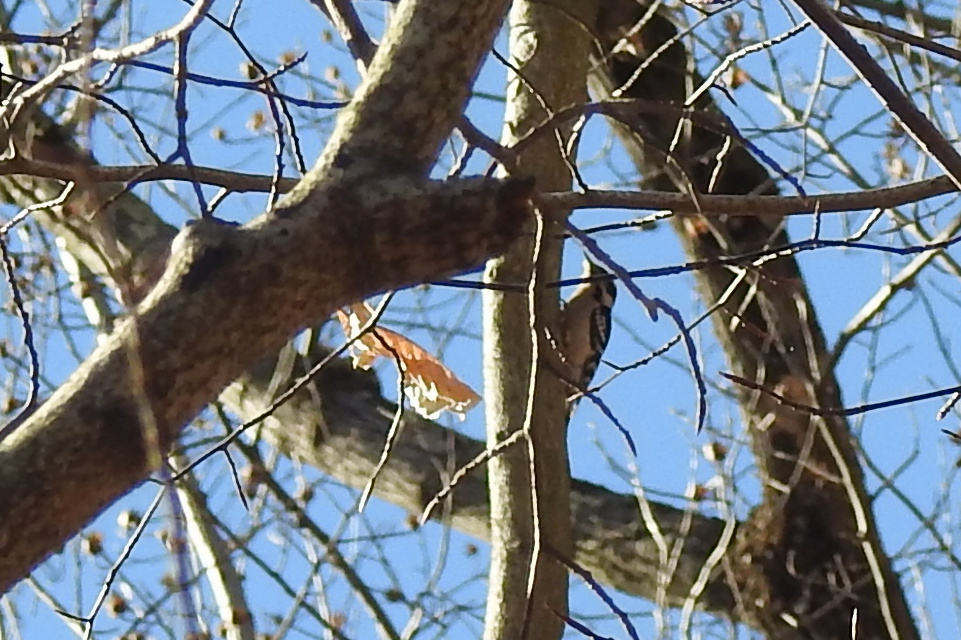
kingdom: Animalia
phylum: Chordata
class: Aves
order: Piciformes
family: Picidae
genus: Dryobates
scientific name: Dryobates pubescens
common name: Downy woodpecker
